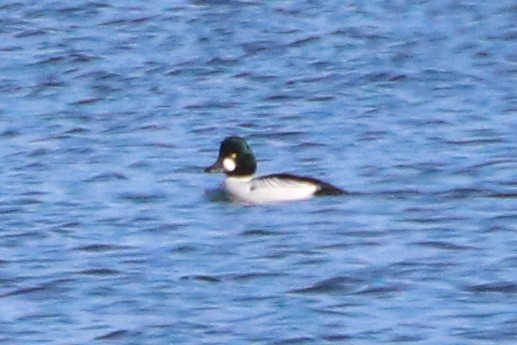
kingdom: Animalia
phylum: Chordata
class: Aves
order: Anseriformes
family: Anatidae
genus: Bucephala
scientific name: Bucephala clangula
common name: Common goldeneye
